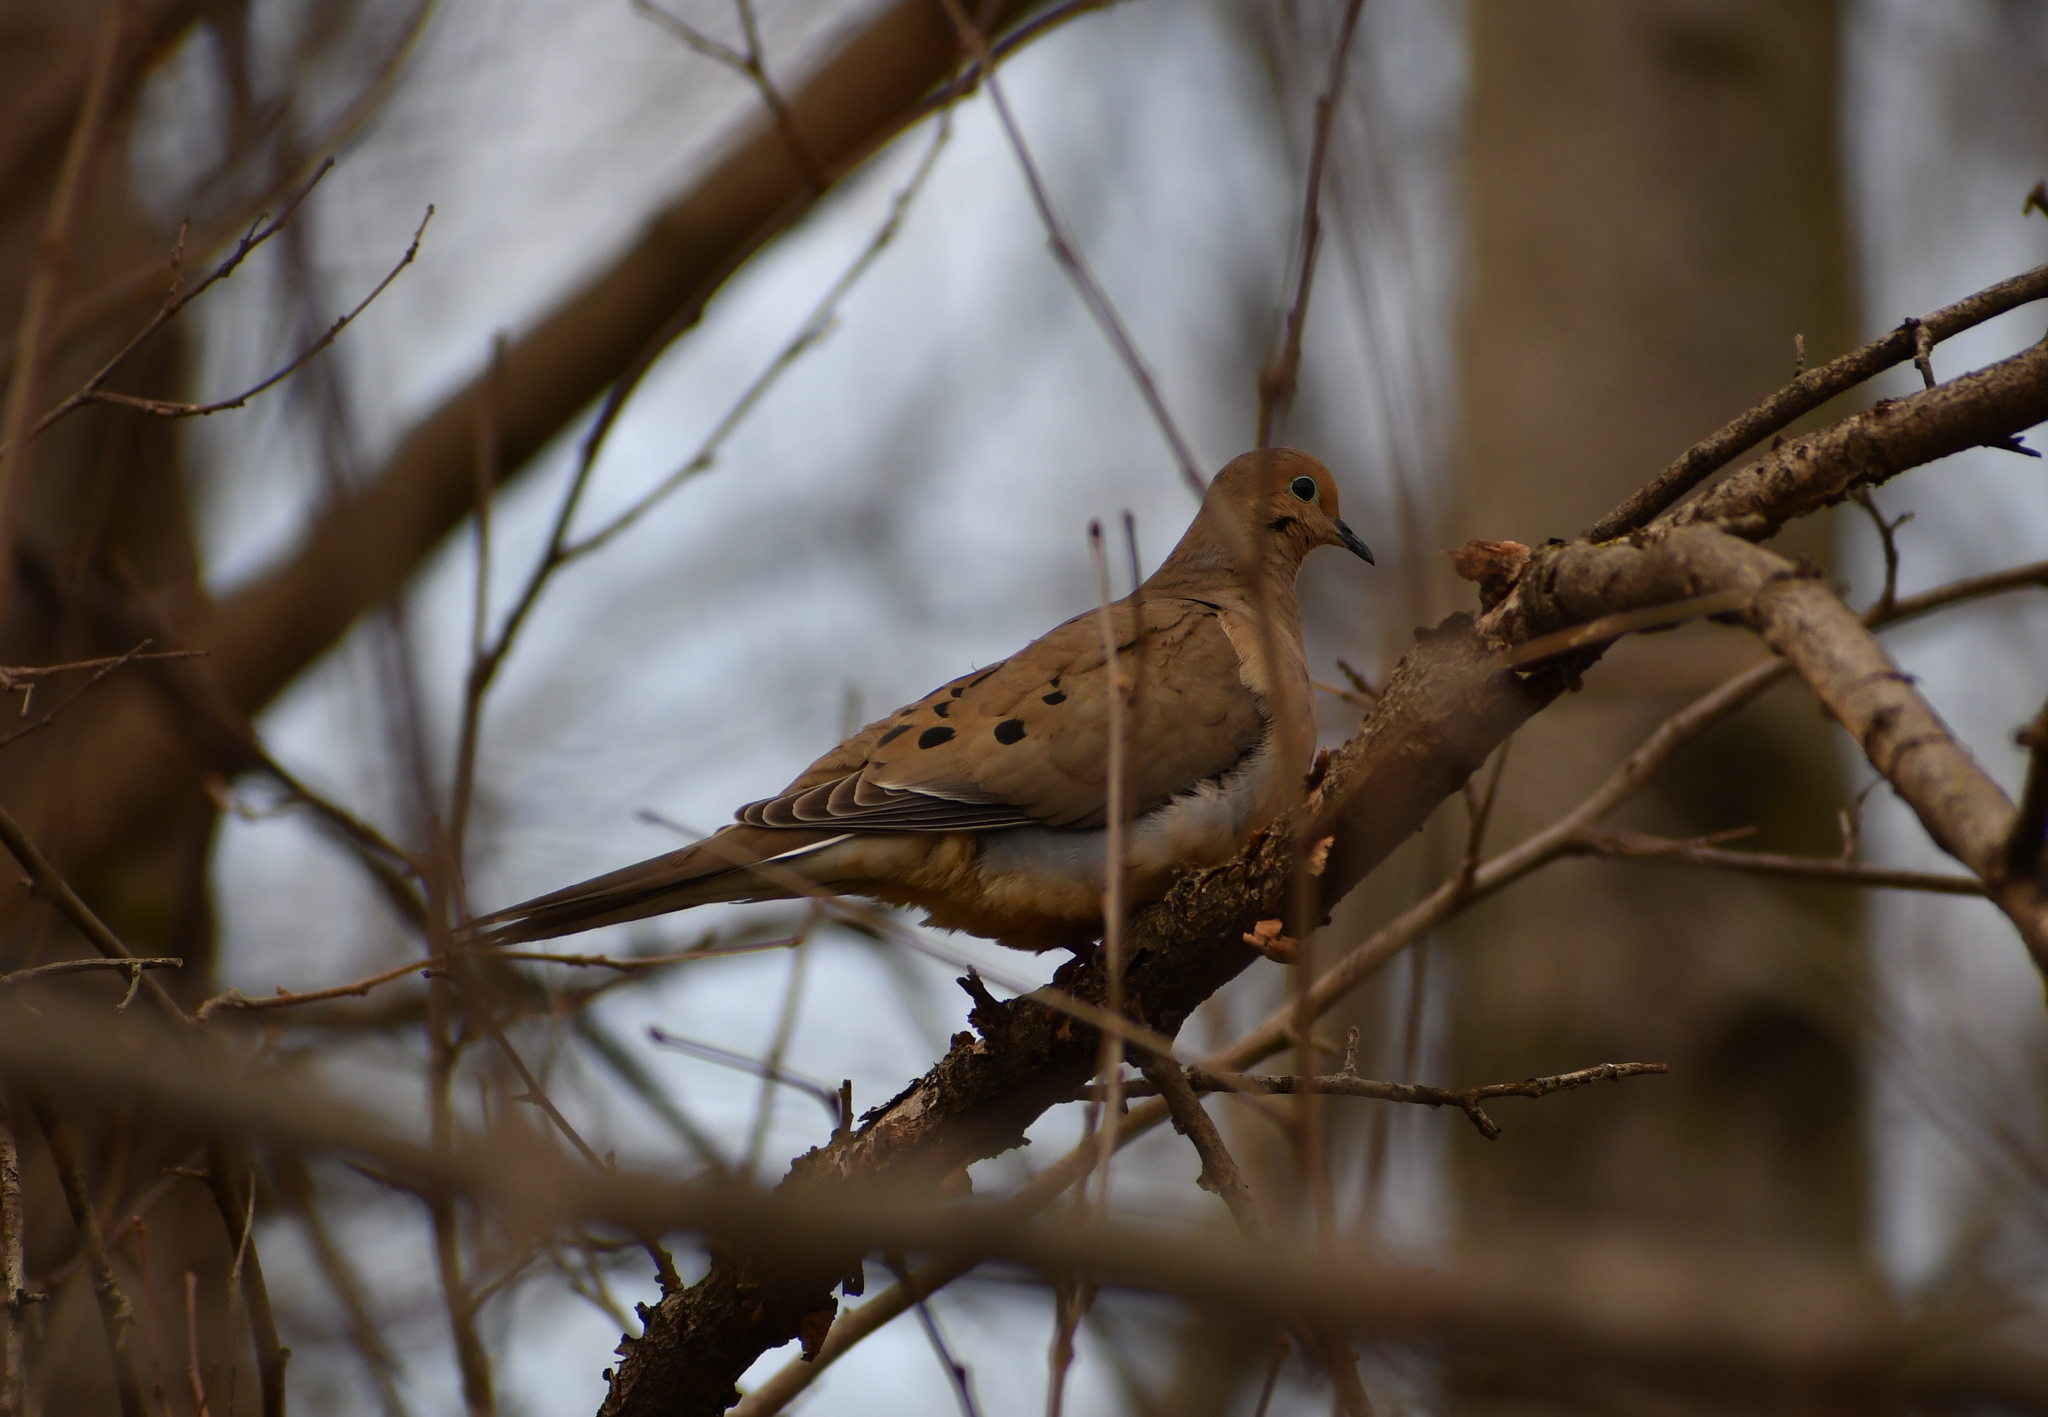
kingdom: Animalia
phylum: Chordata
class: Aves
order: Columbiformes
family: Columbidae
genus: Zenaida
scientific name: Zenaida macroura
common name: Mourning dove
